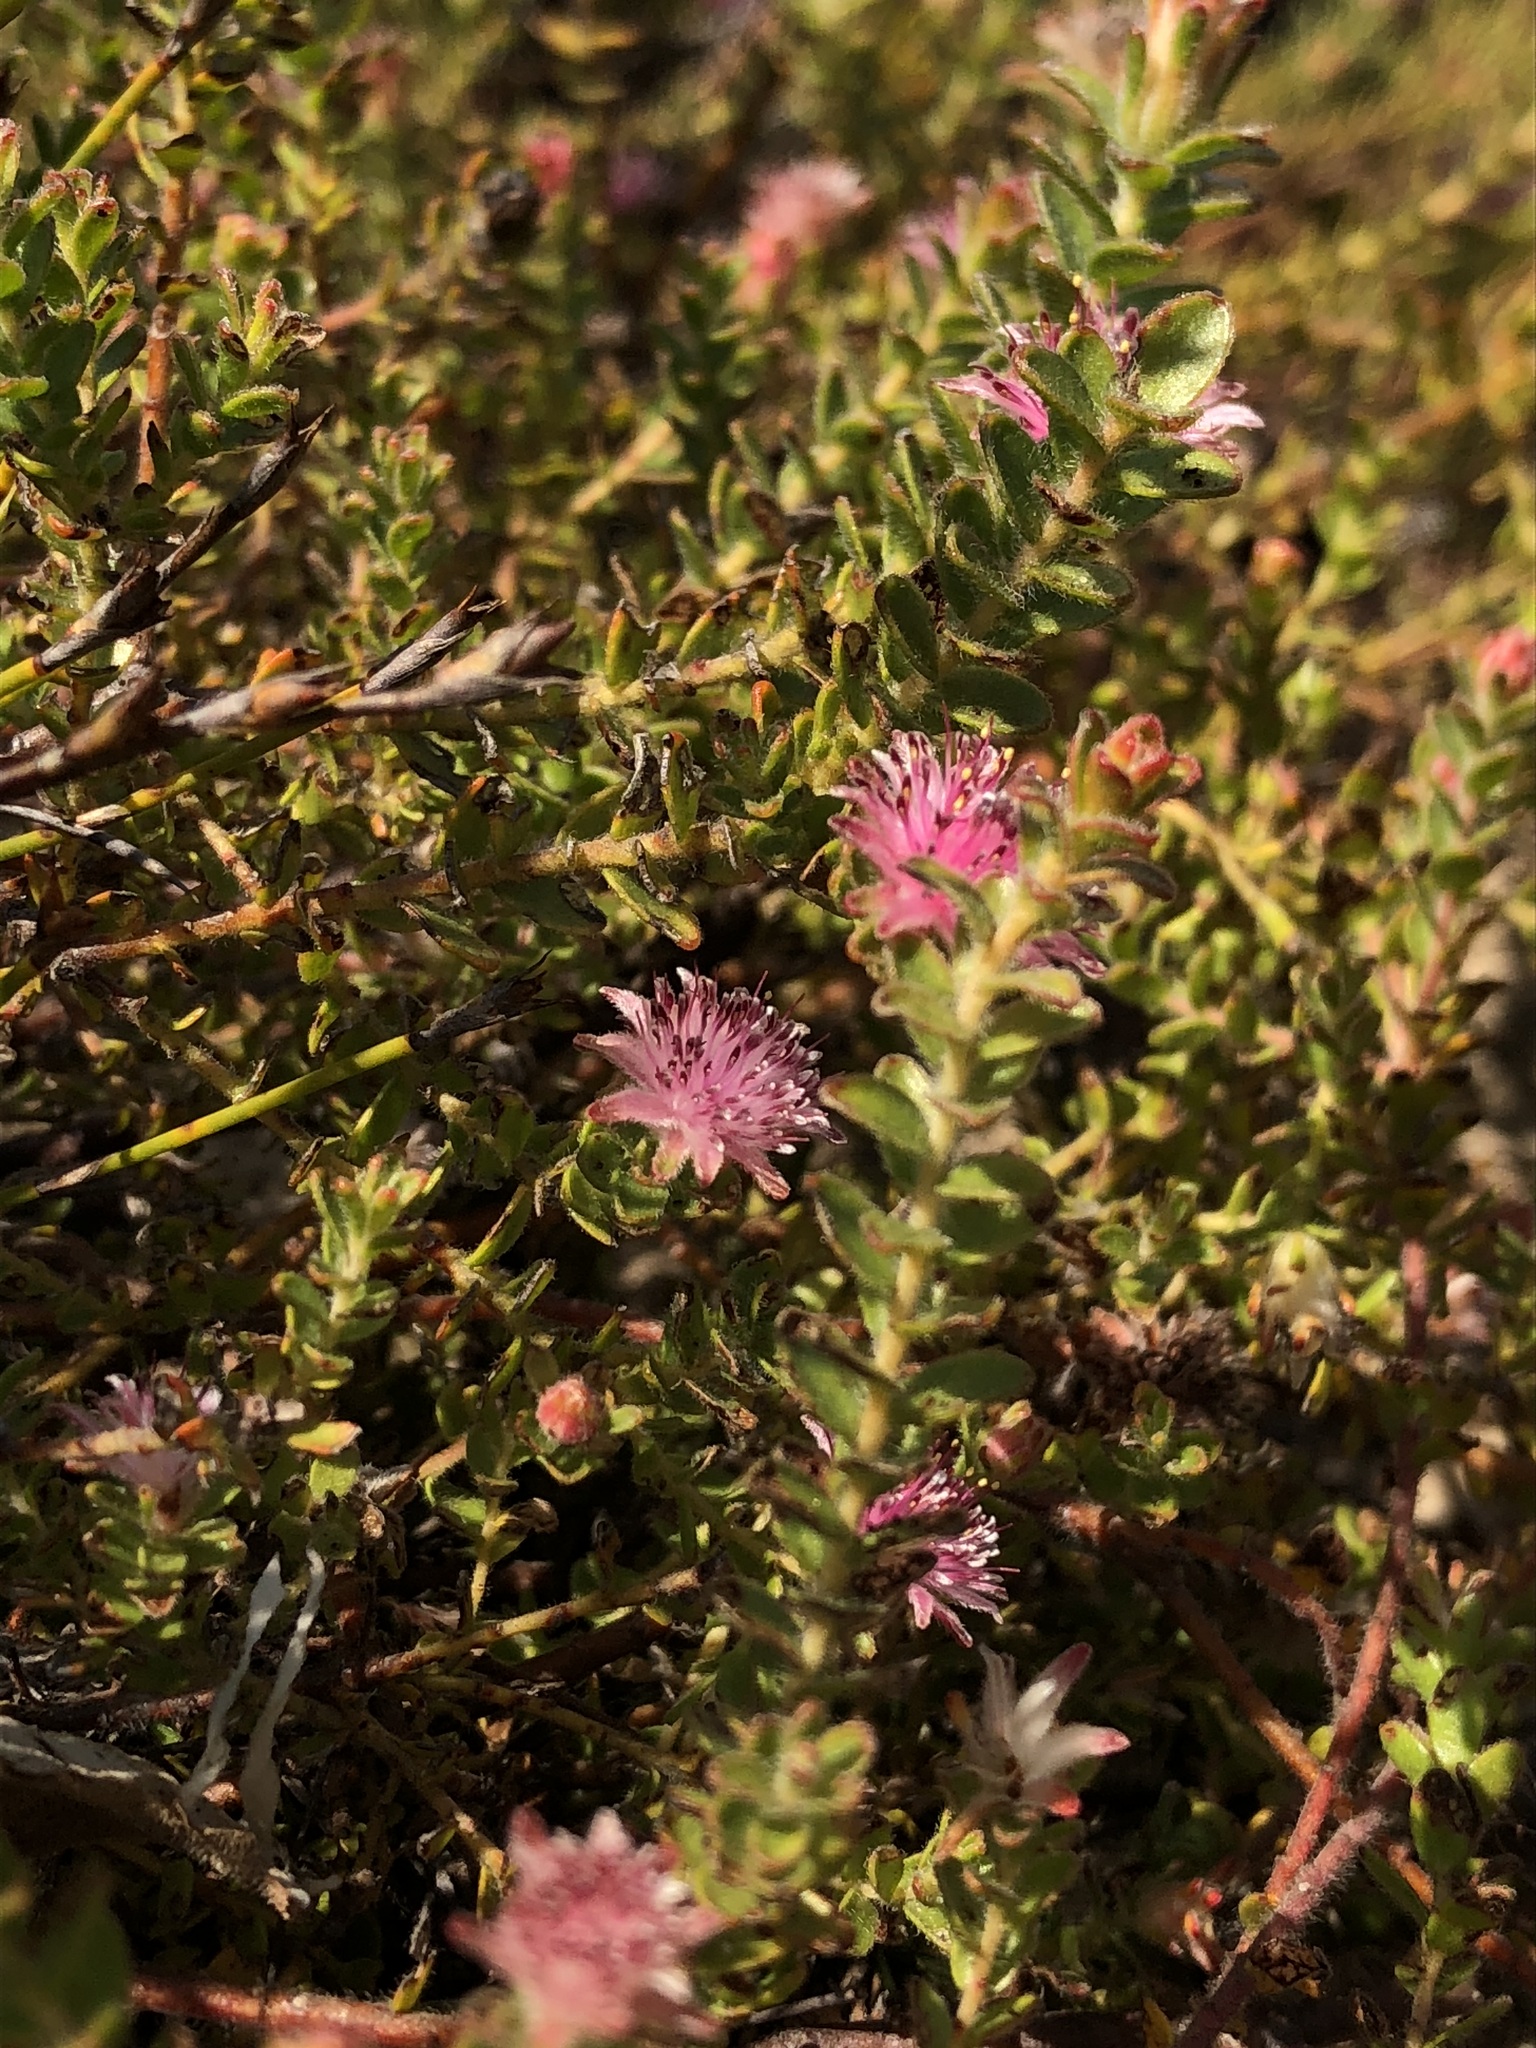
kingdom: Plantae
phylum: Tracheophyta
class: Magnoliopsida
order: Proteales
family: Proteaceae
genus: Diastella
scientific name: Diastella divaricata
